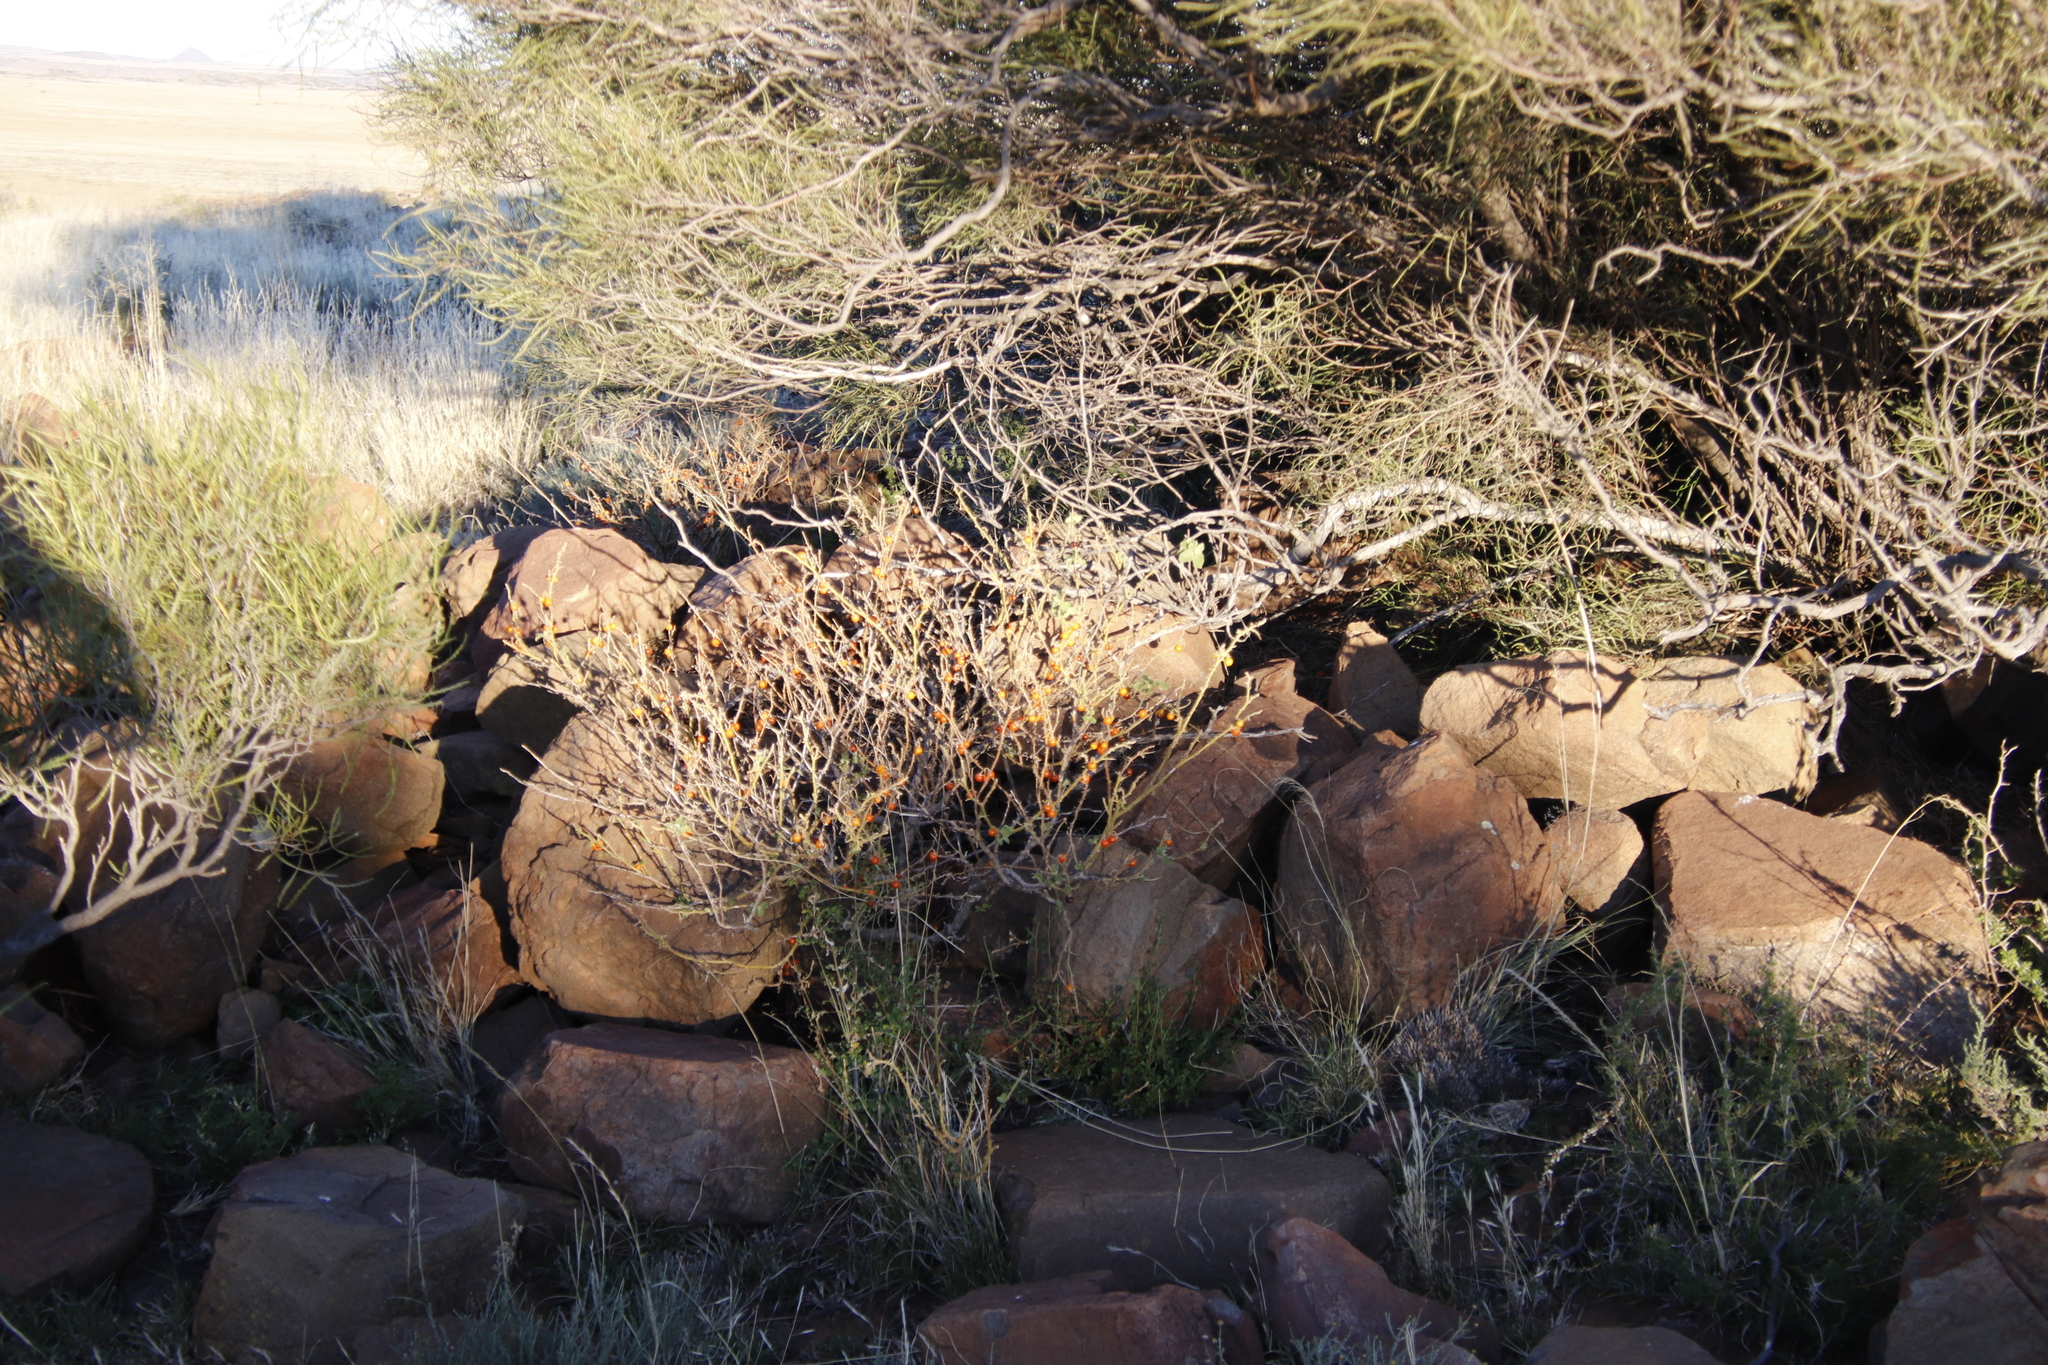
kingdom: Plantae
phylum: Tracheophyta
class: Magnoliopsida
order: Solanales
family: Solanaceae
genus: Solanum
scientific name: Solanum tomentosum
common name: Wild aubergine
